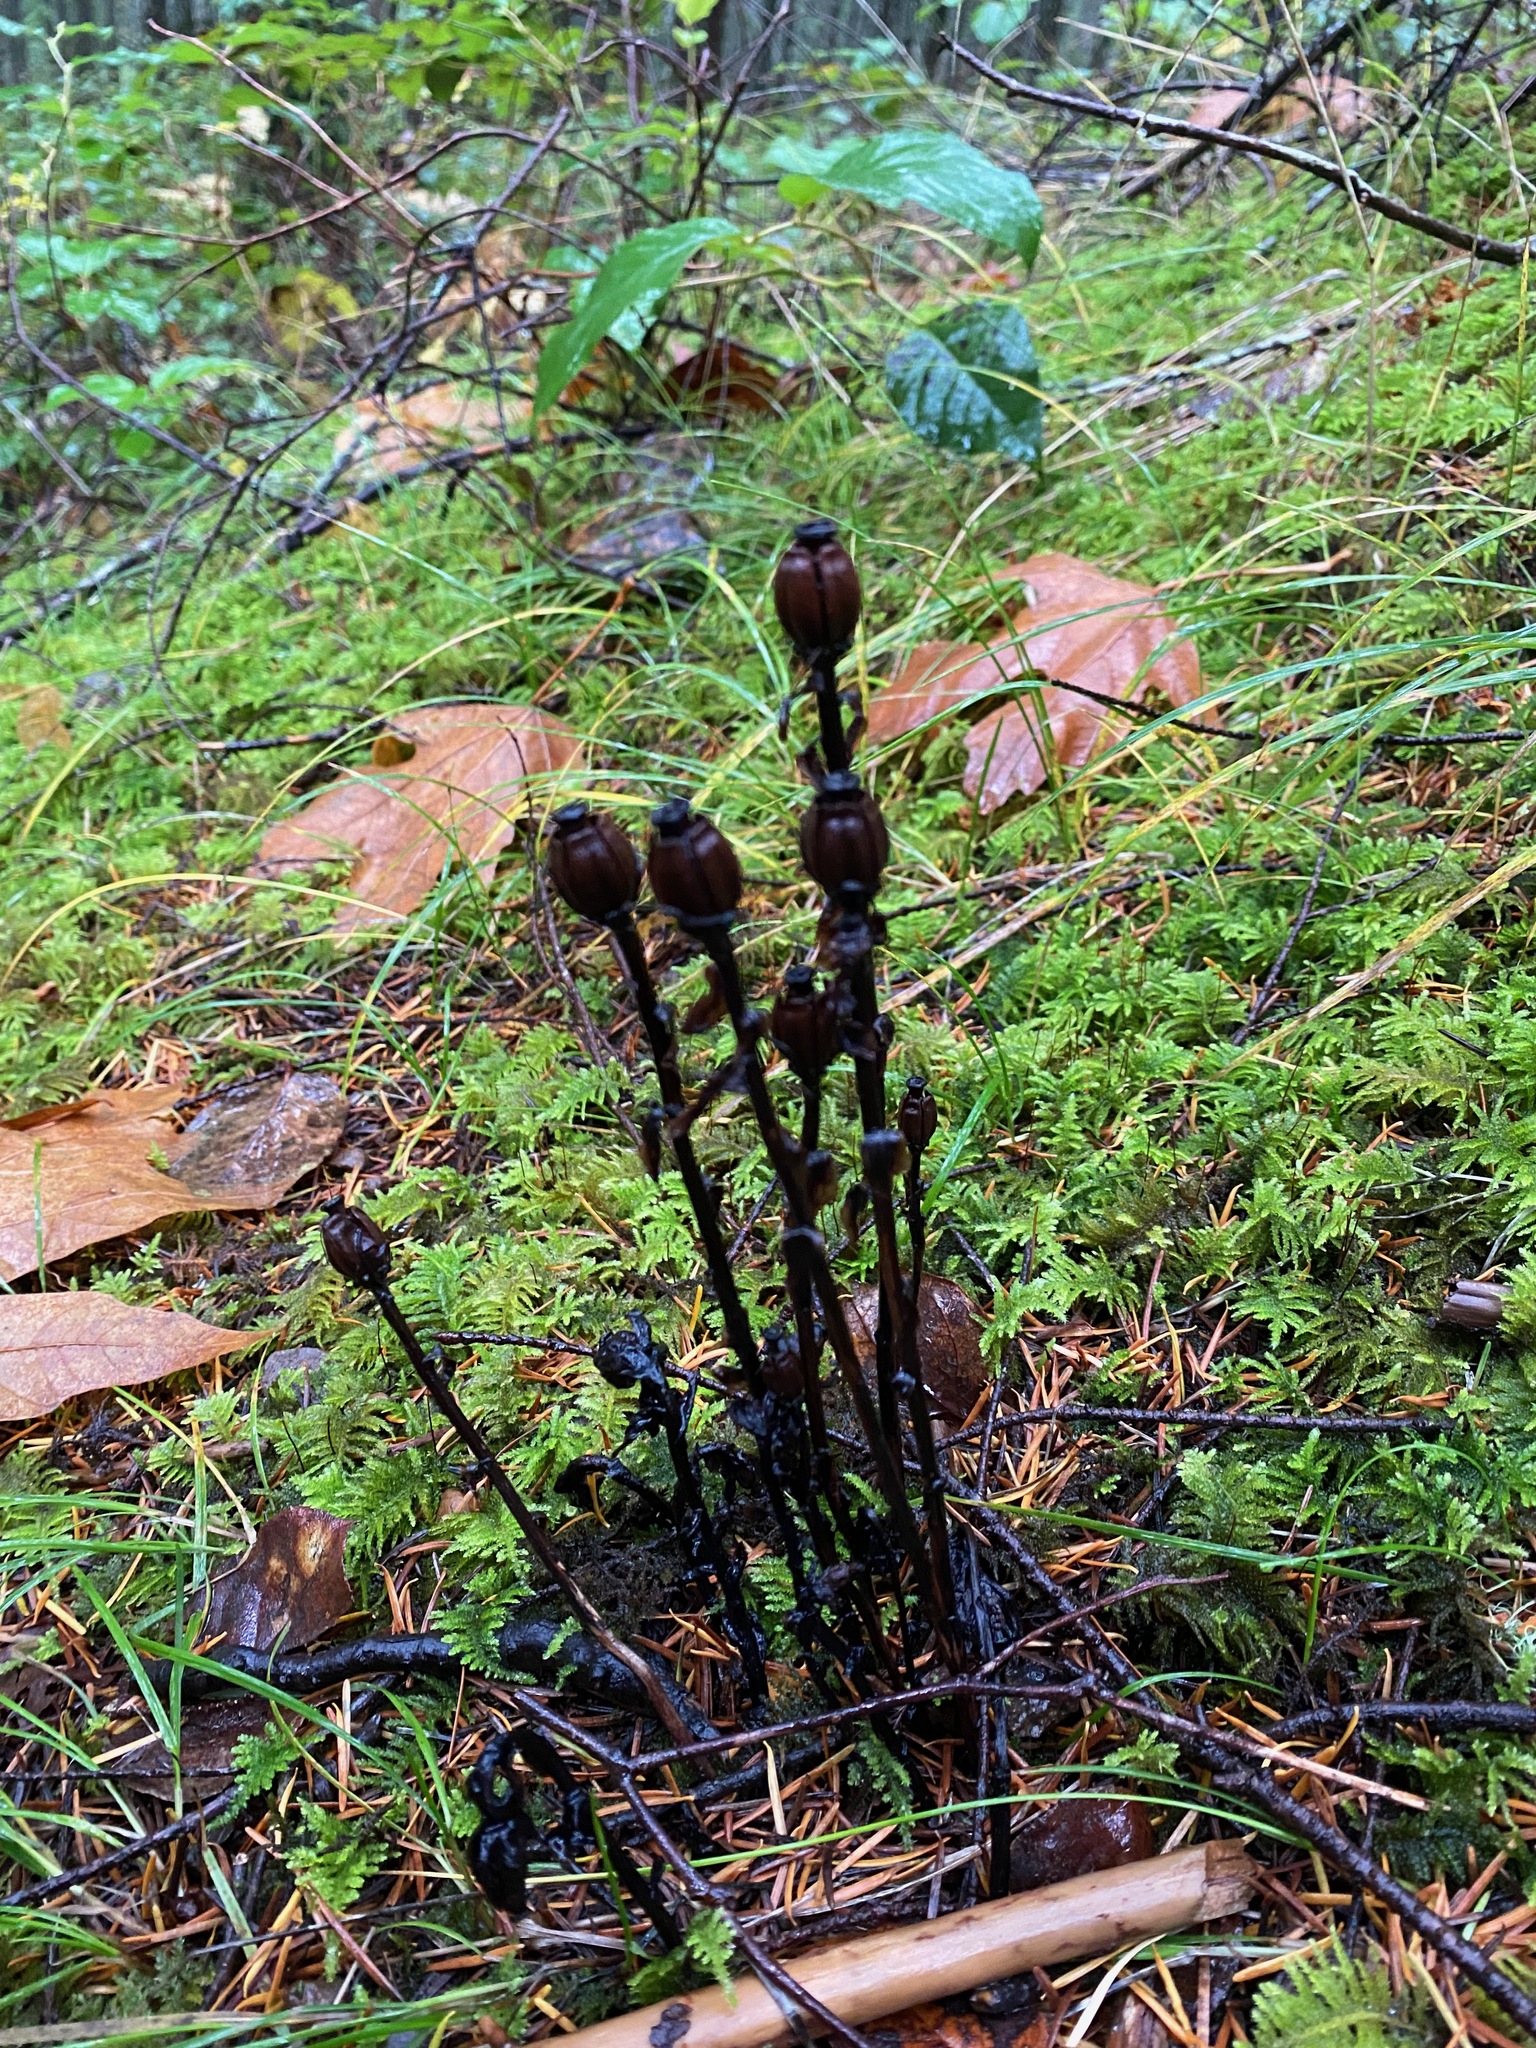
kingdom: Plantae
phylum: Tracheophyta
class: Magnoliopsida
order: Ericales
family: Ericaceae
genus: Monotropa
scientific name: Monotropa uniflora
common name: Convulsion root
